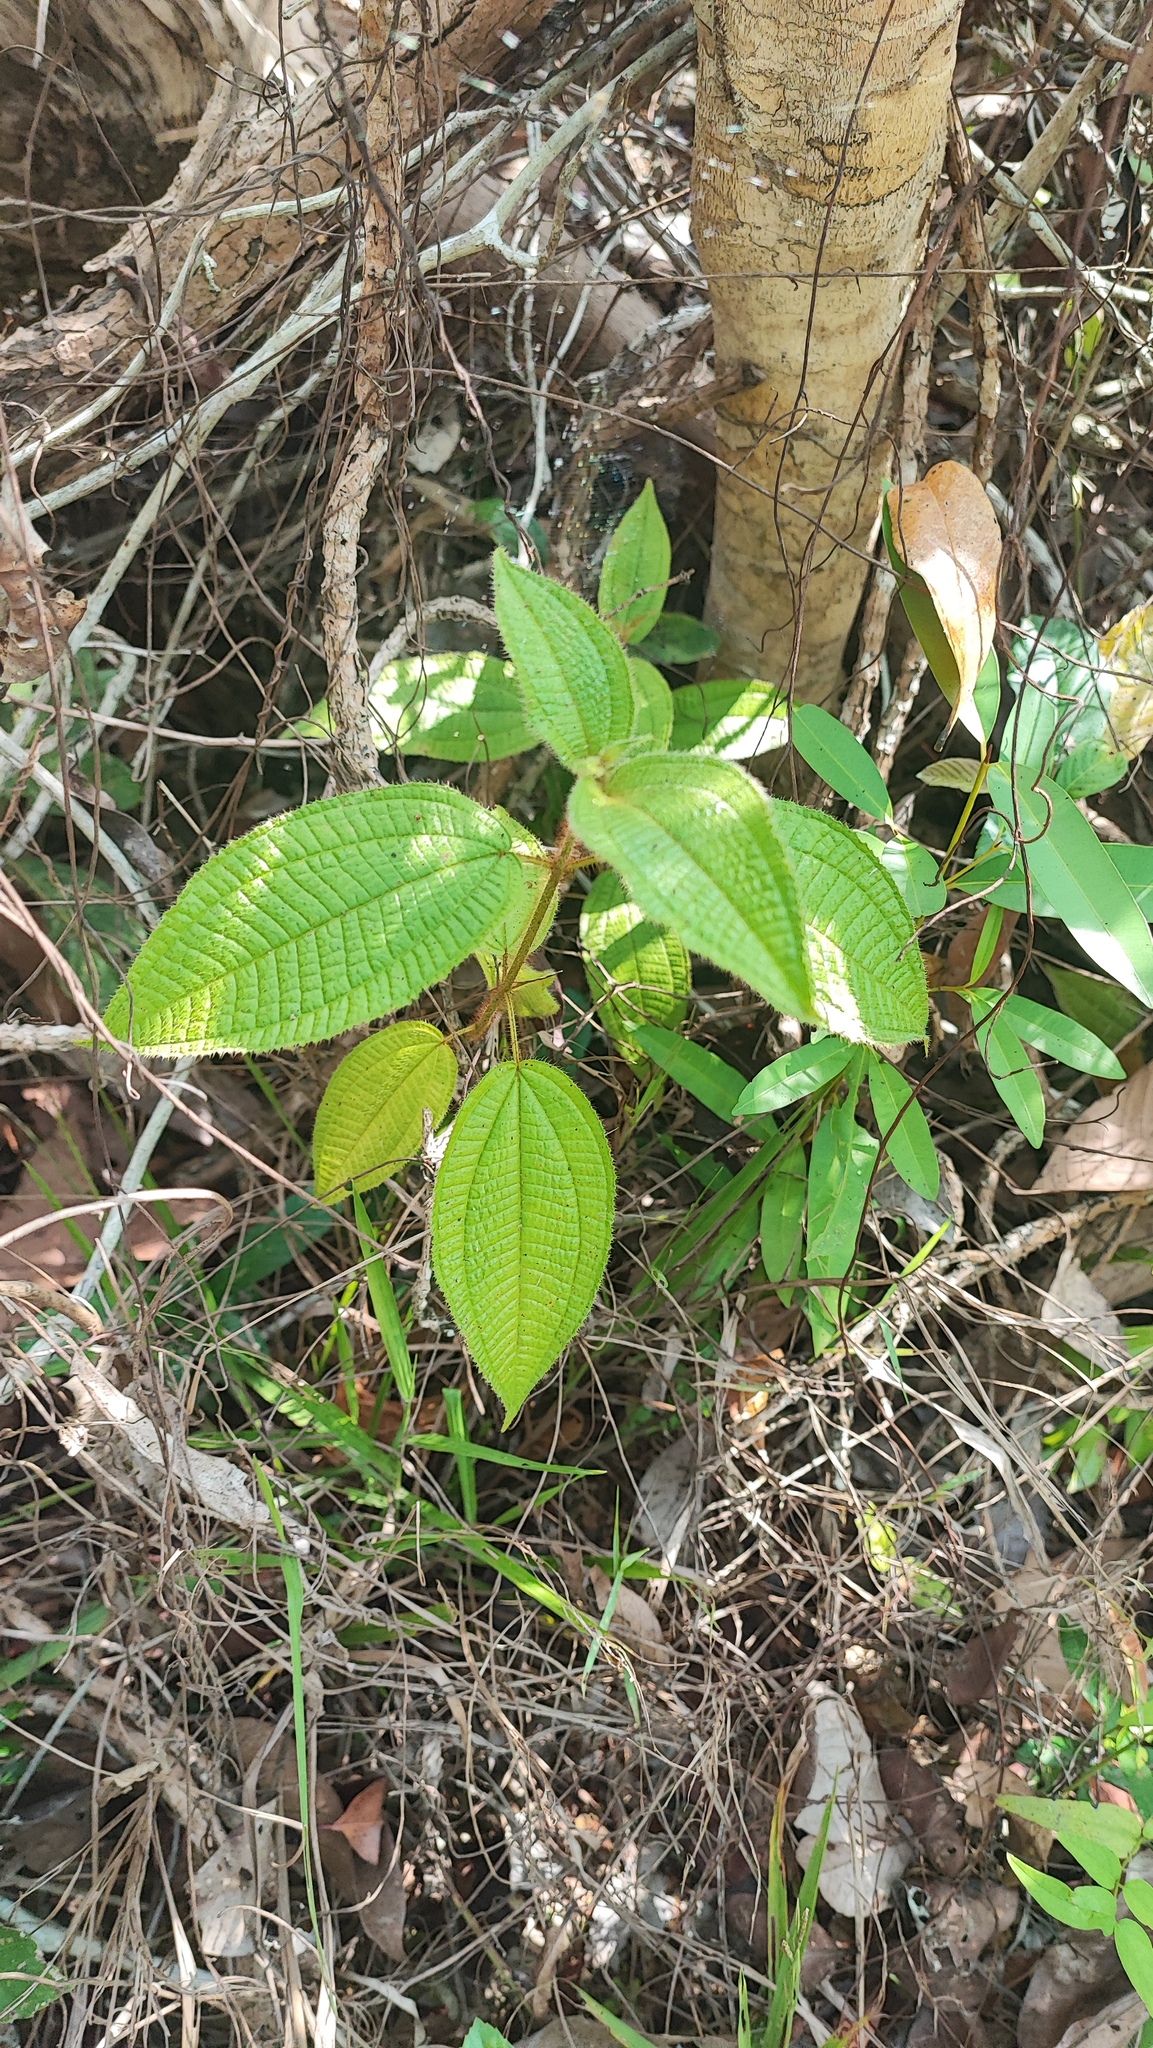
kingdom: Plantae
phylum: Tracheophyta
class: Magnoliopsida
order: Myrtales
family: Melastomataceae
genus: Miconia
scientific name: Miconia crenata
